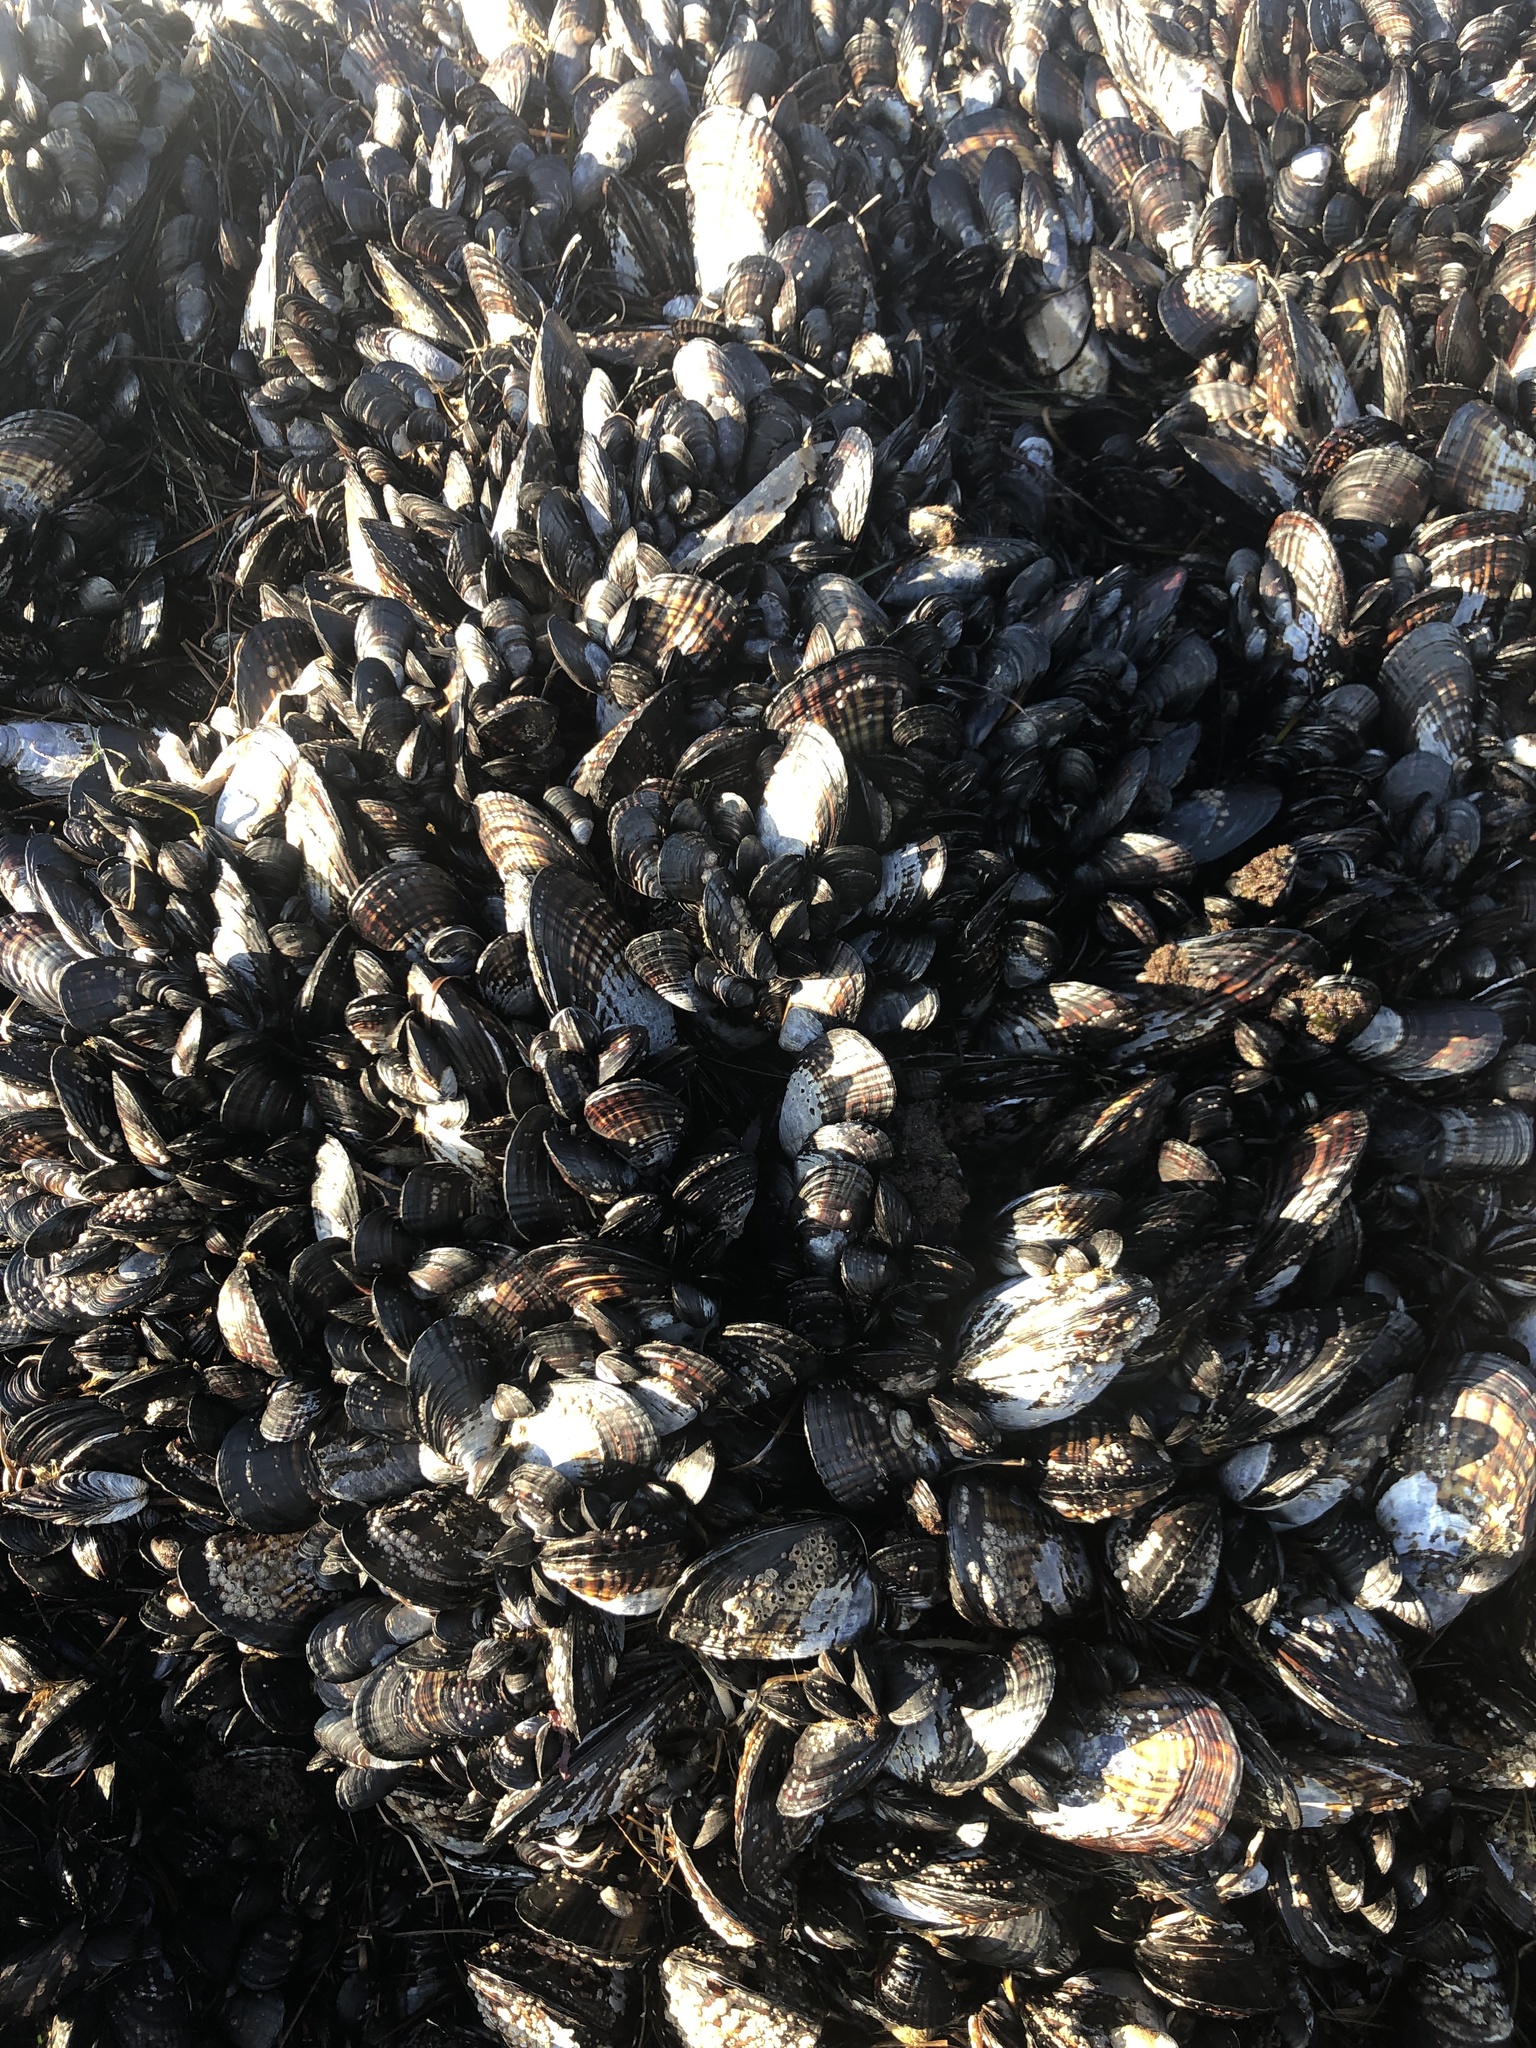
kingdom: Animalia
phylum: Mollusca
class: Bivalvia
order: Mytilida
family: Mytilidae
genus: Mytilus
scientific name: Mytilus californianus
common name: California mussel
